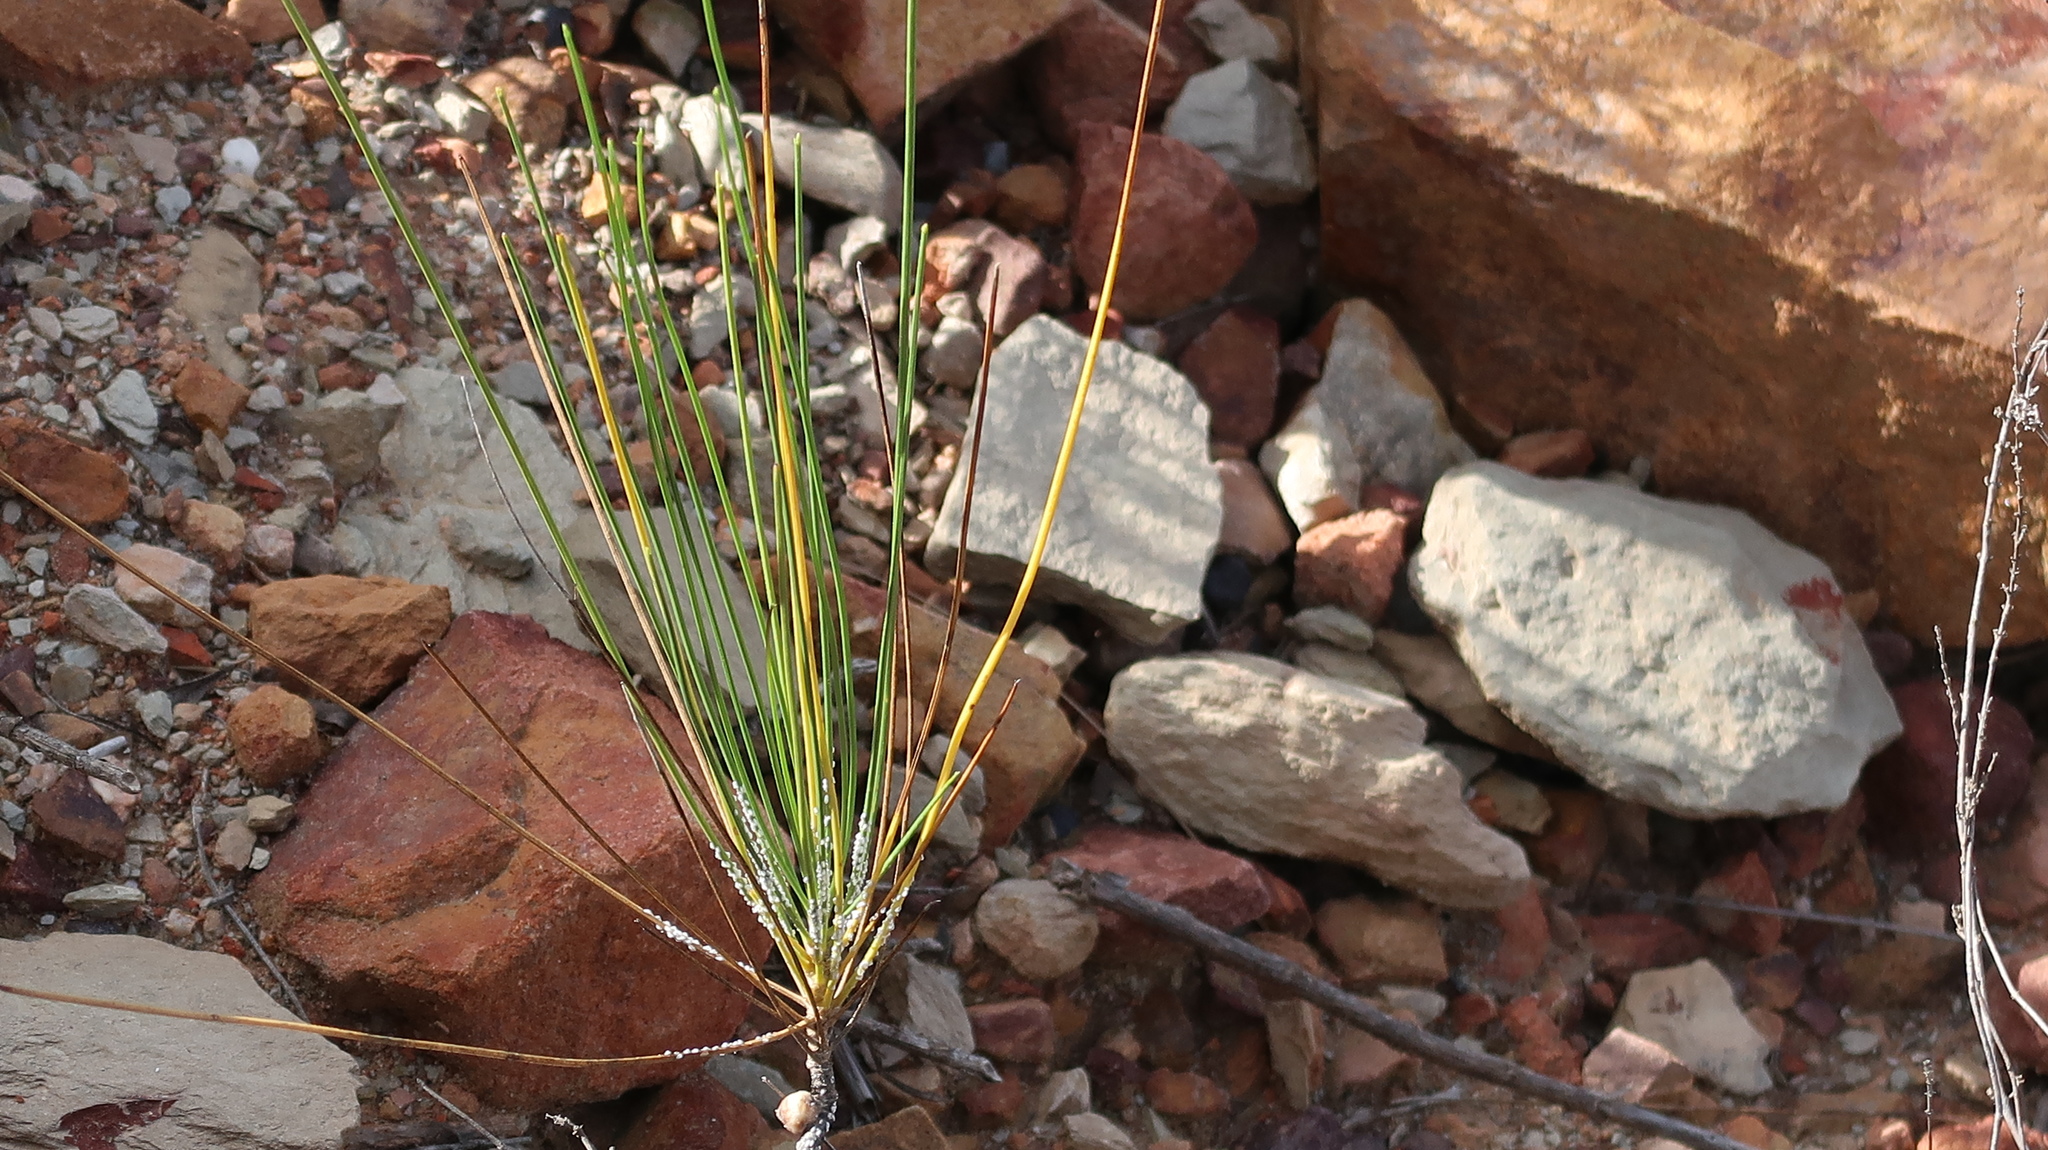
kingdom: Plantae
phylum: Tracheophyta
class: Magnoliopsida
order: Apiales
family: Apiaceae
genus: Anginon
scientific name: Anginon difforme
